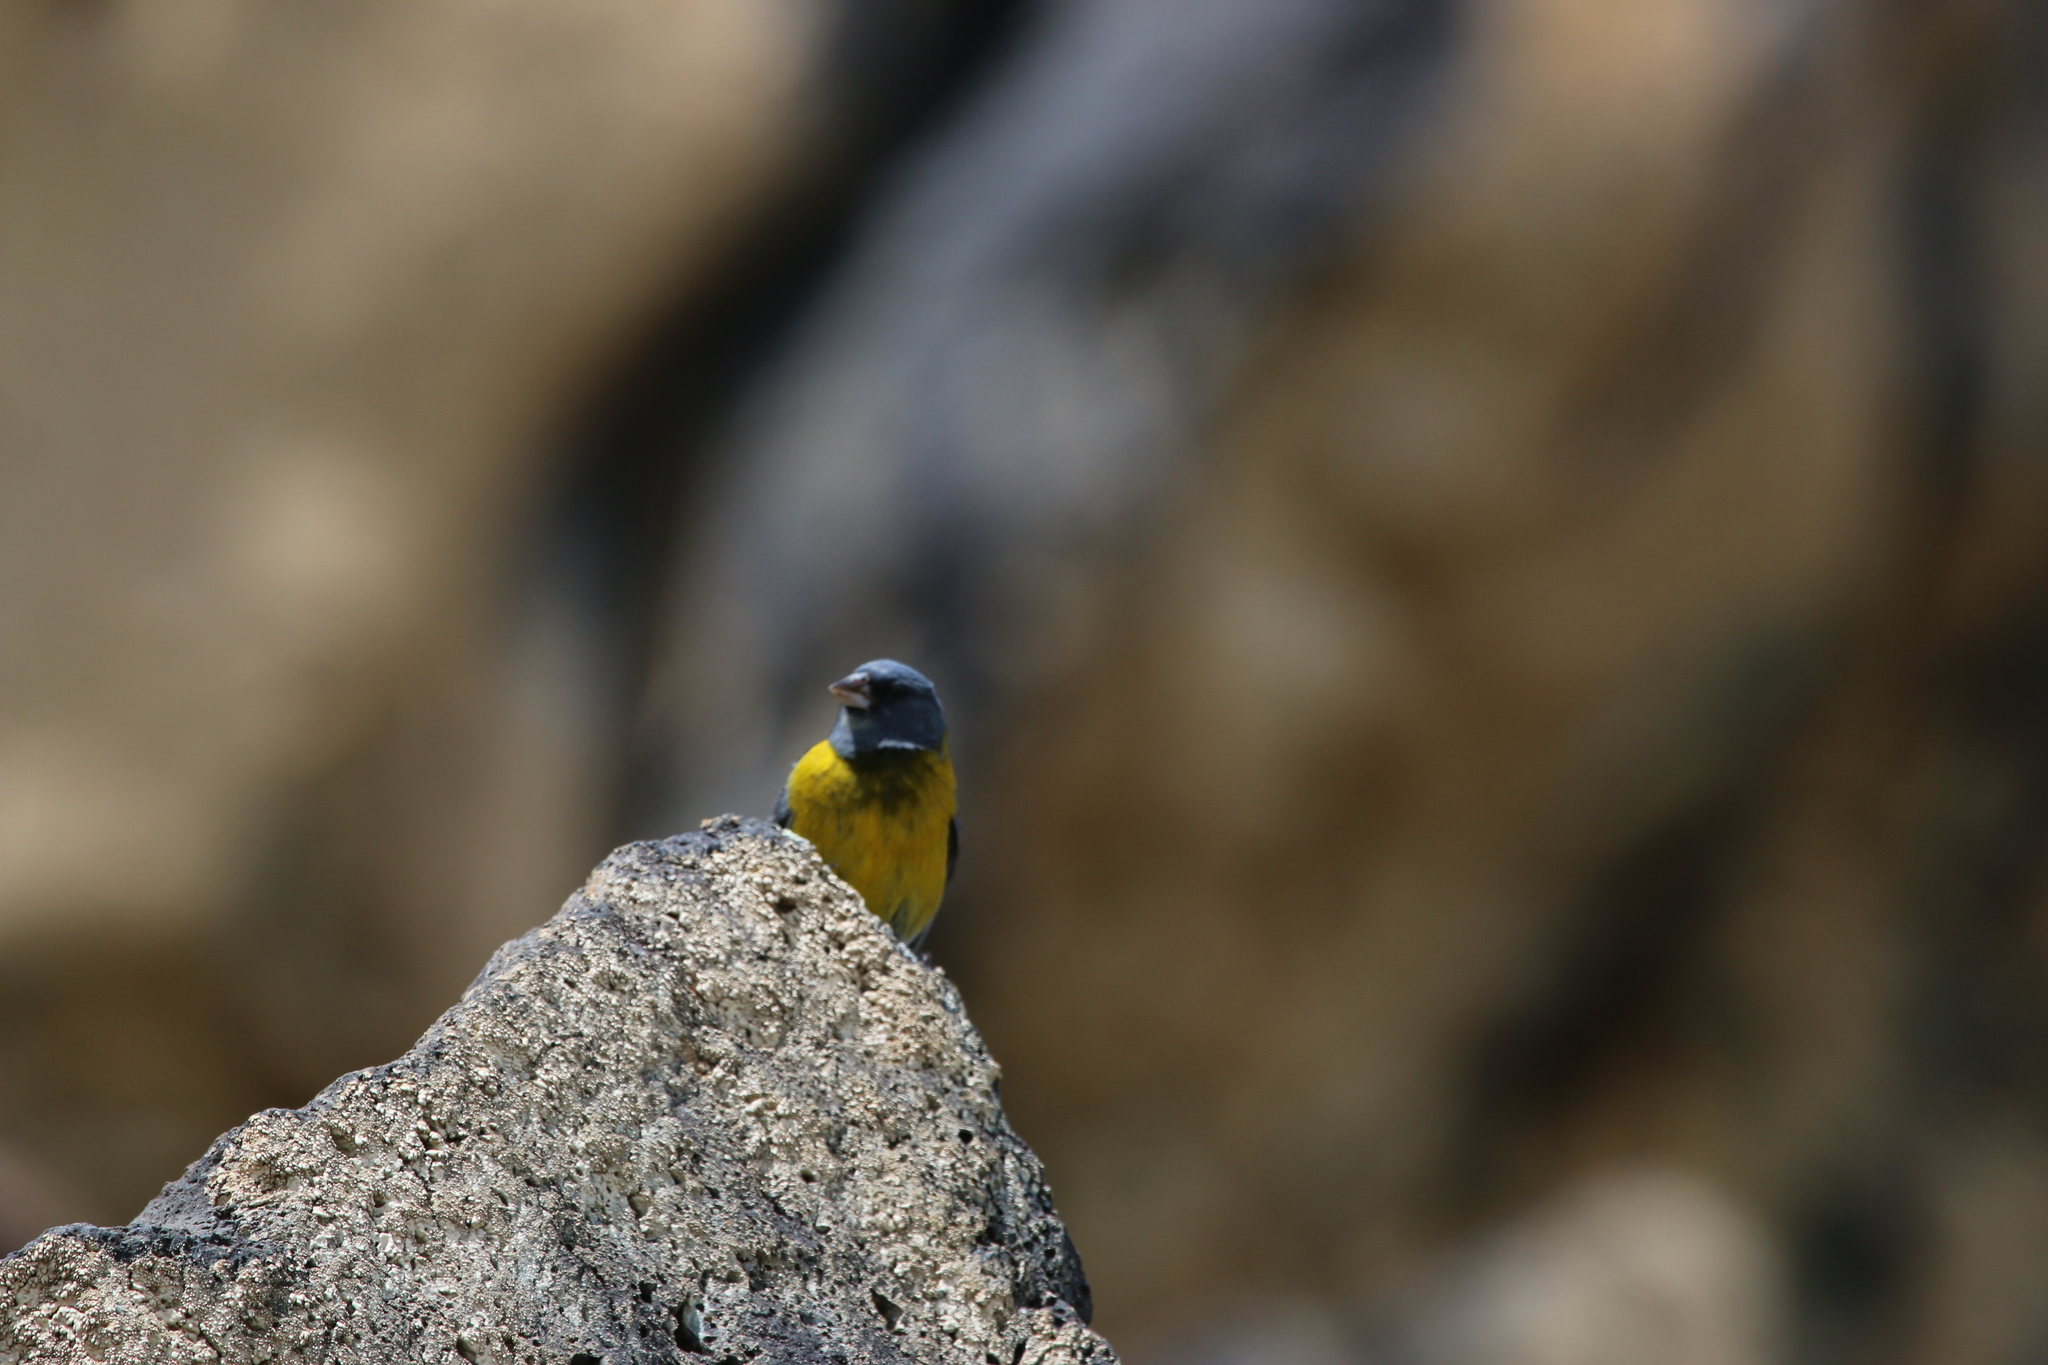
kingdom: Animalia
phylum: Chordata
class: Aves
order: Passeriformes
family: Thraupidae
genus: Phrygilus
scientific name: Phrygilus gayi
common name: Grey-hooded sierra finch
